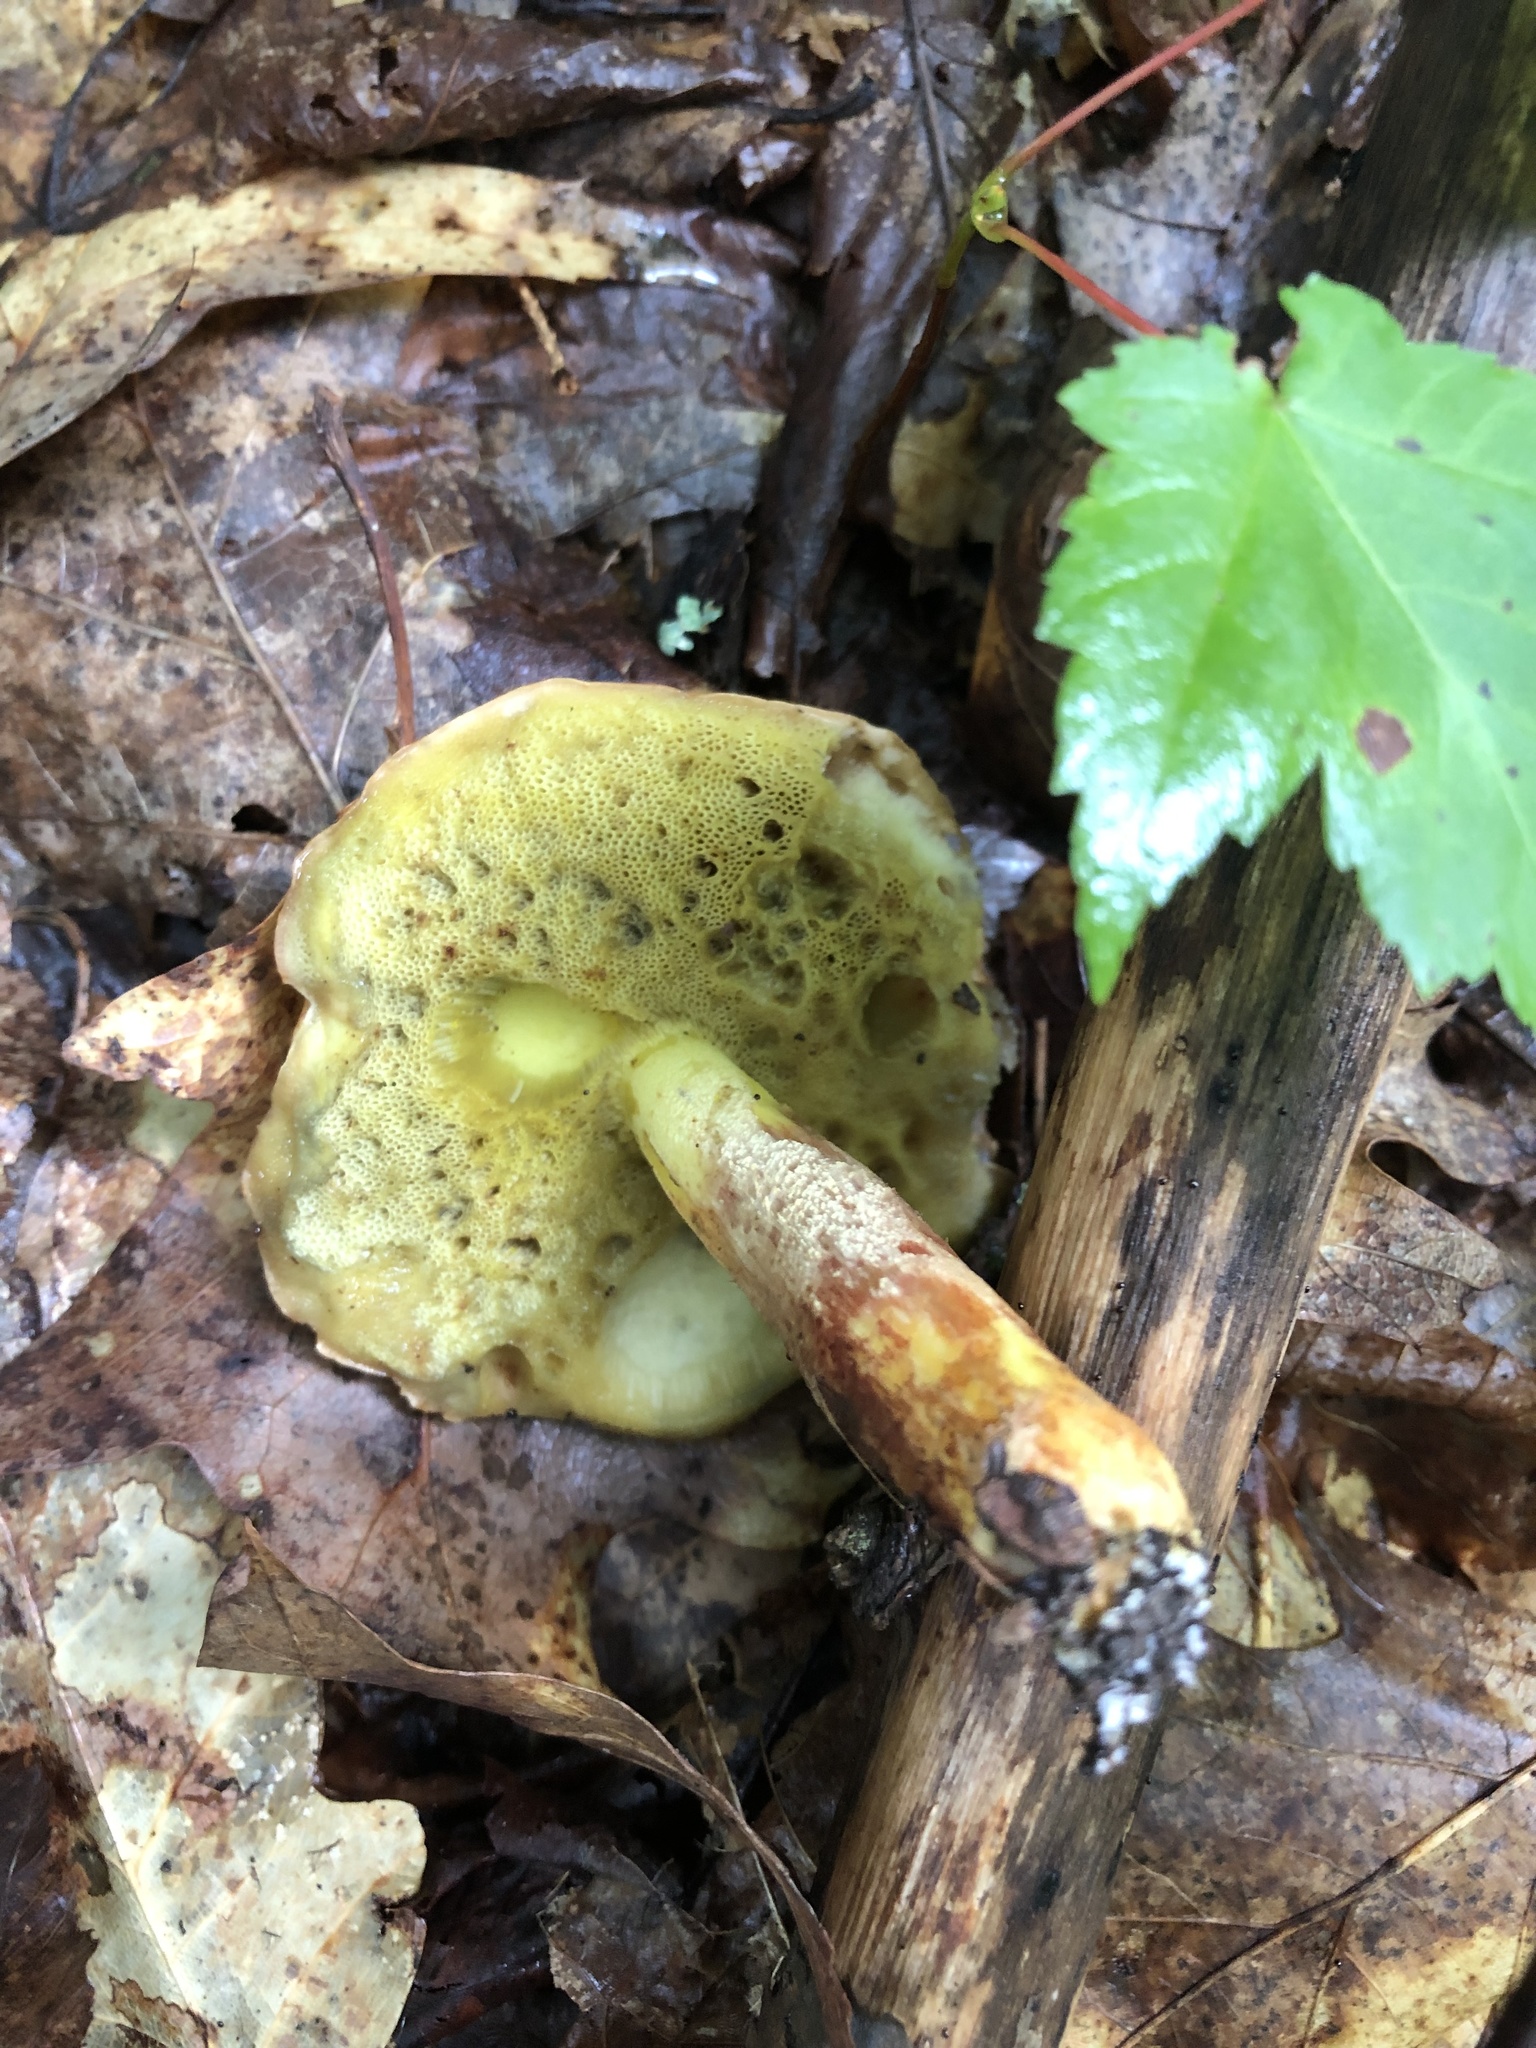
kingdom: Fungi
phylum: Basidiomycota
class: Agaricomycetes
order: Boletales
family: Boletaceae
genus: Hemileccinum
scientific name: Hemileccinum subglabripes
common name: Smoothish-stemmed bolete
